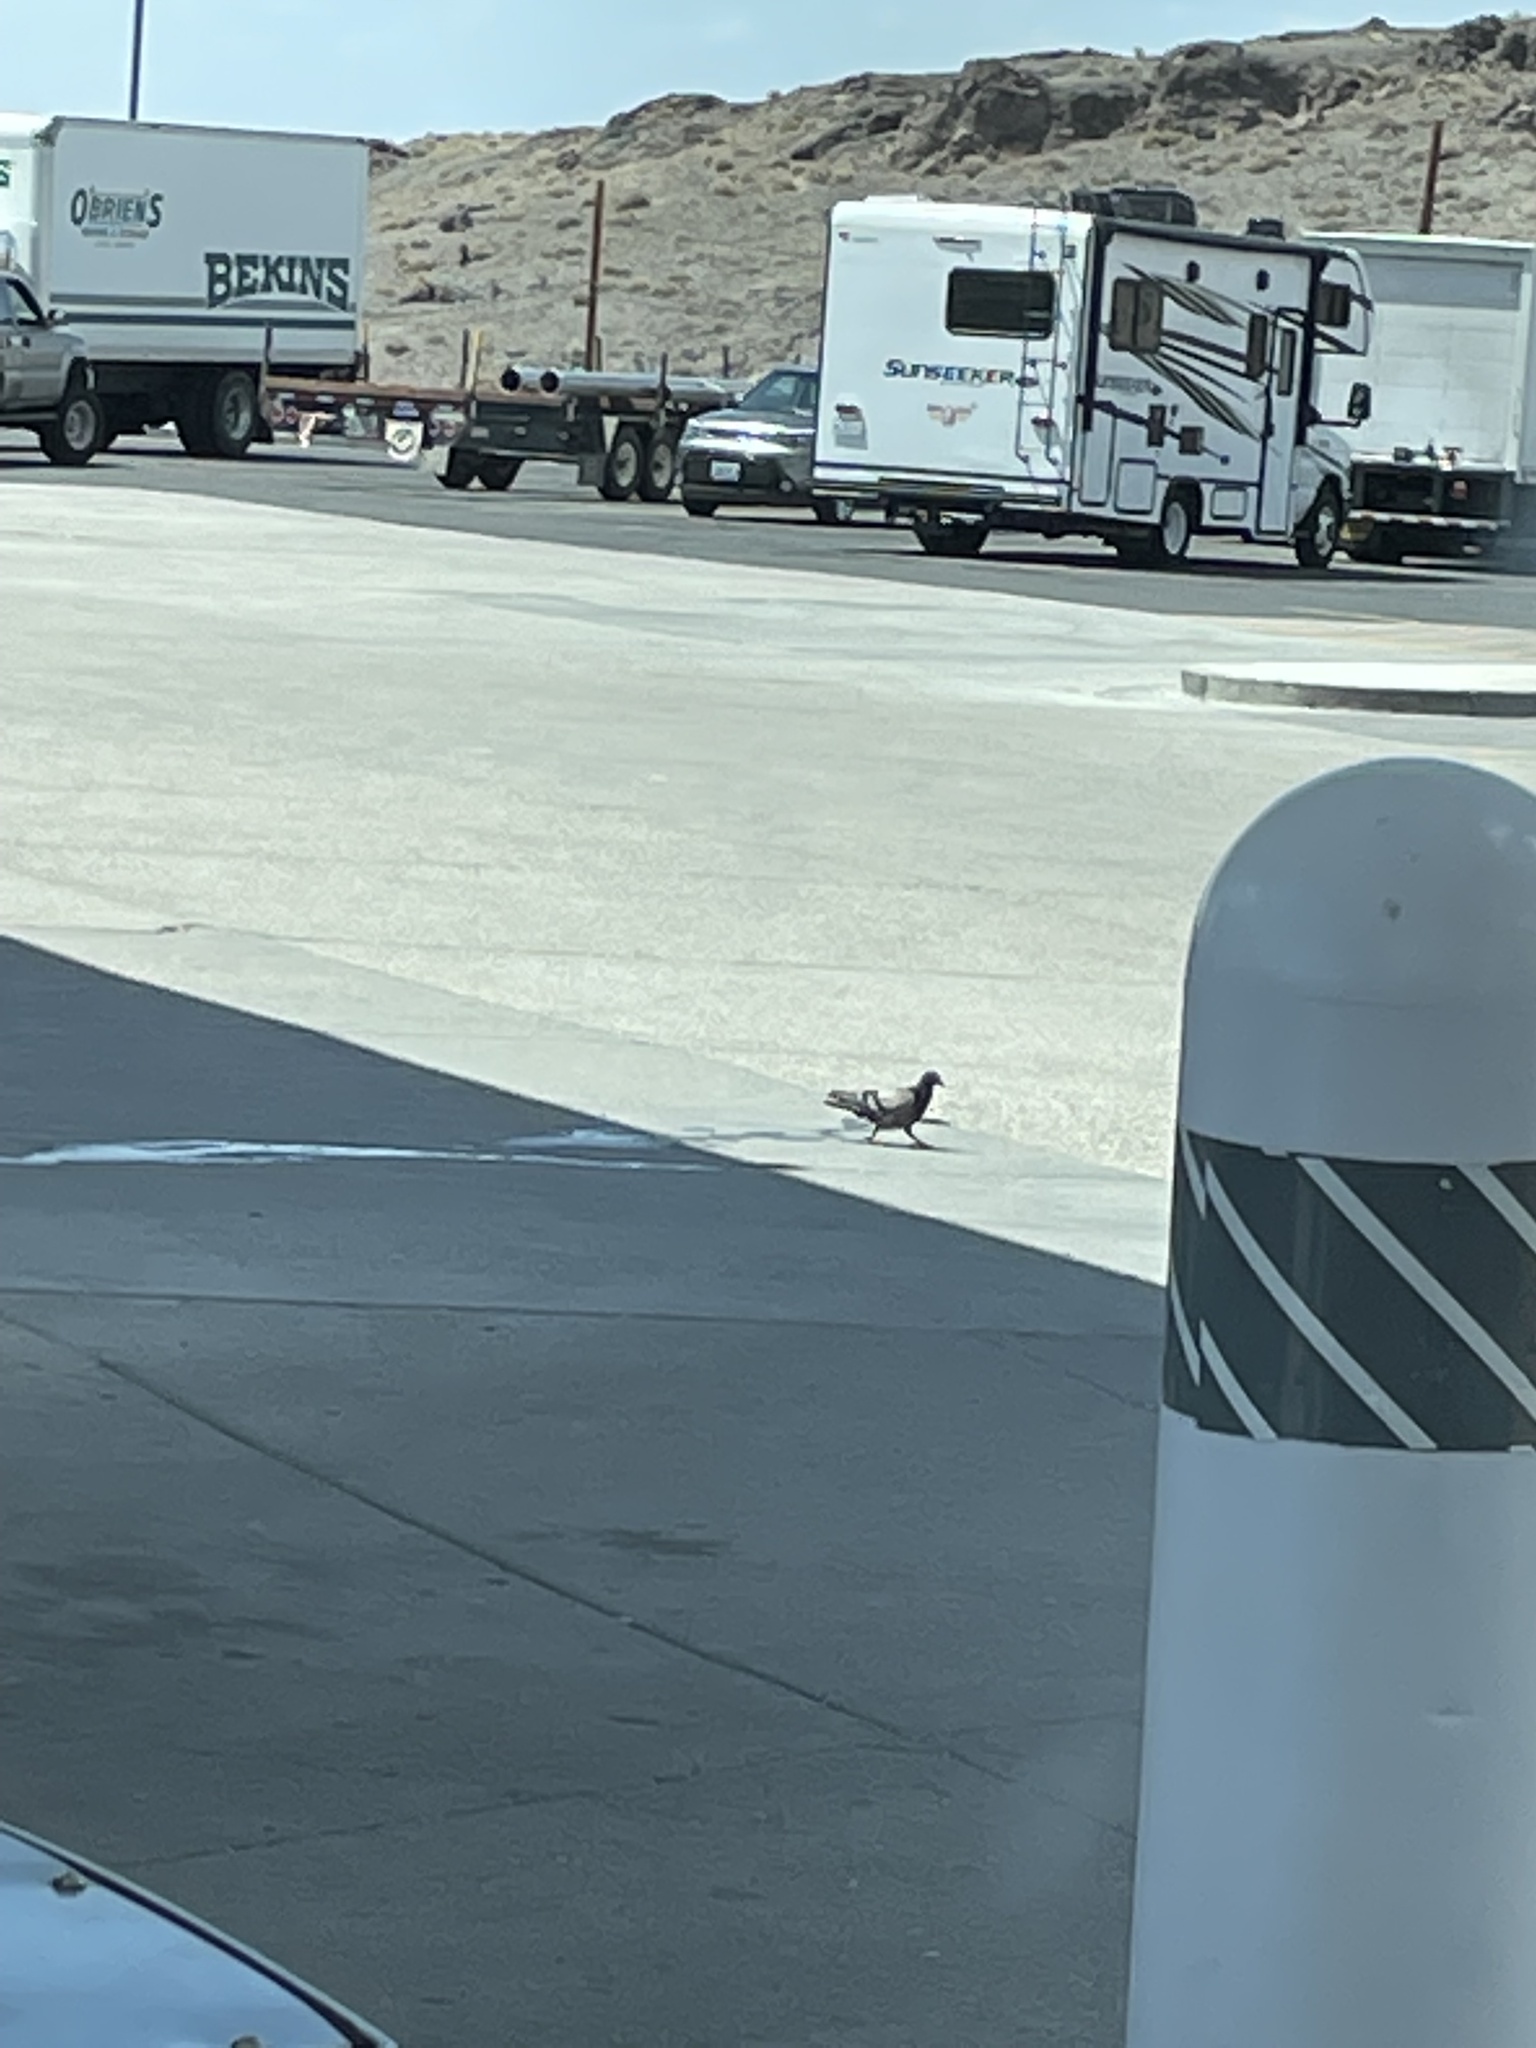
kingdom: Animalia
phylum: Chordata
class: Aves
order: Columbiformes
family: Columbidae
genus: Columba
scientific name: Columba livia
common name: Rock pigeon
